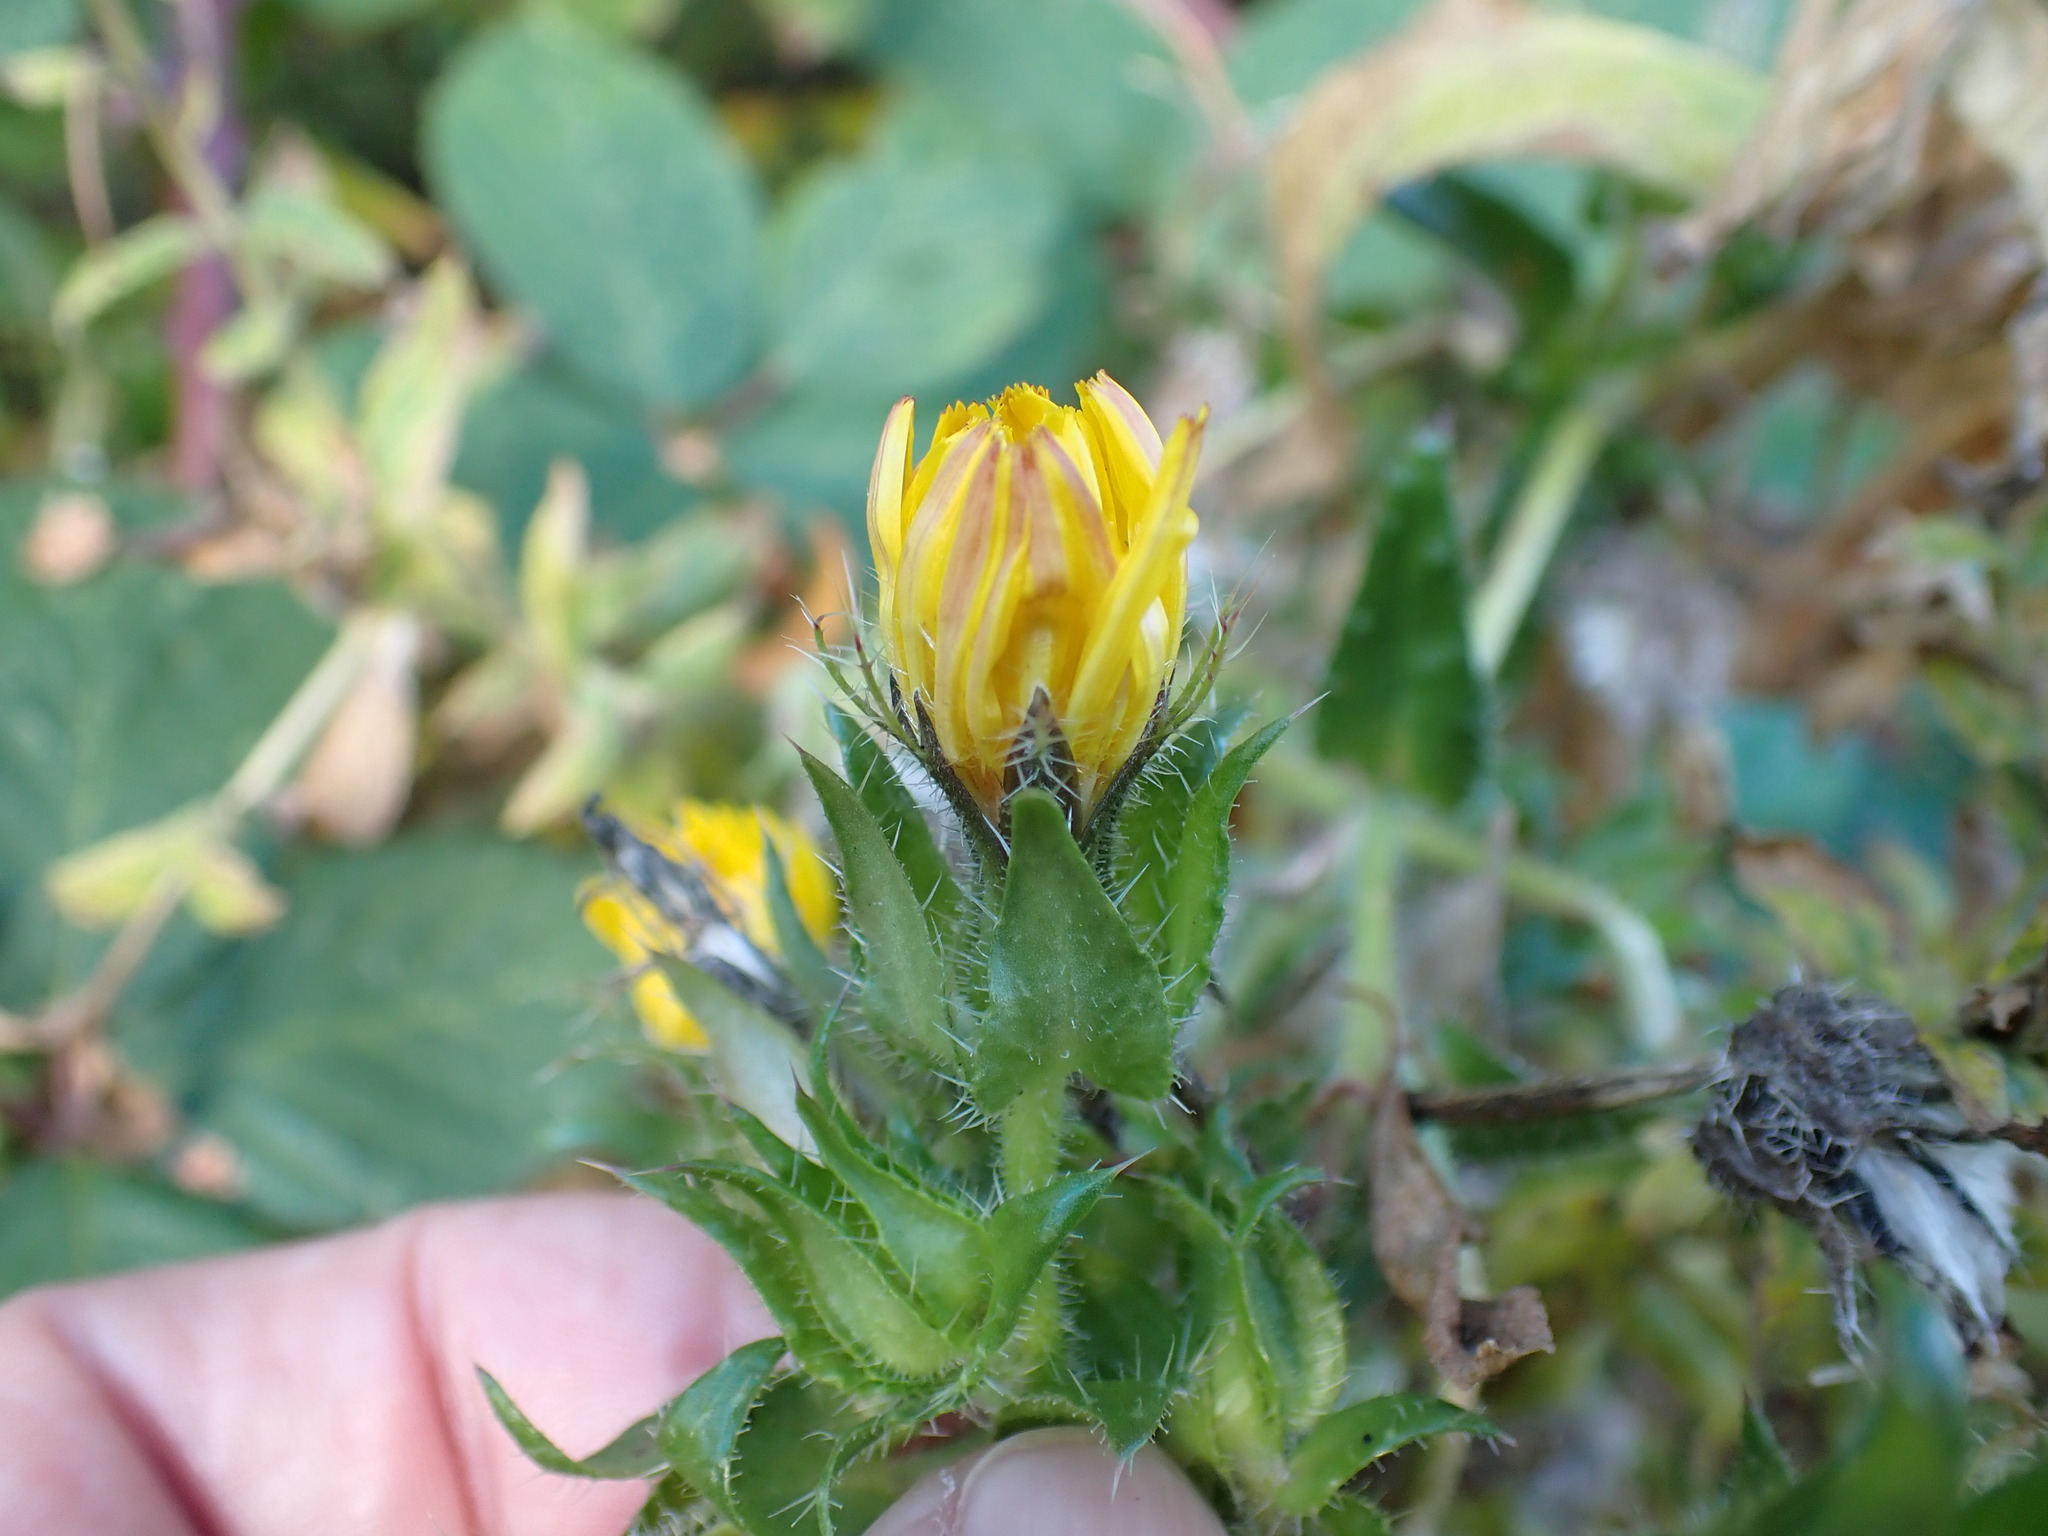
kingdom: Plantae
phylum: Tracheophyta
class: Magnoliopsida
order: Asterales
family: Asteraceae
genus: Helminthotheca
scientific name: Helminthotheca echioides
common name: Ox-tongue
